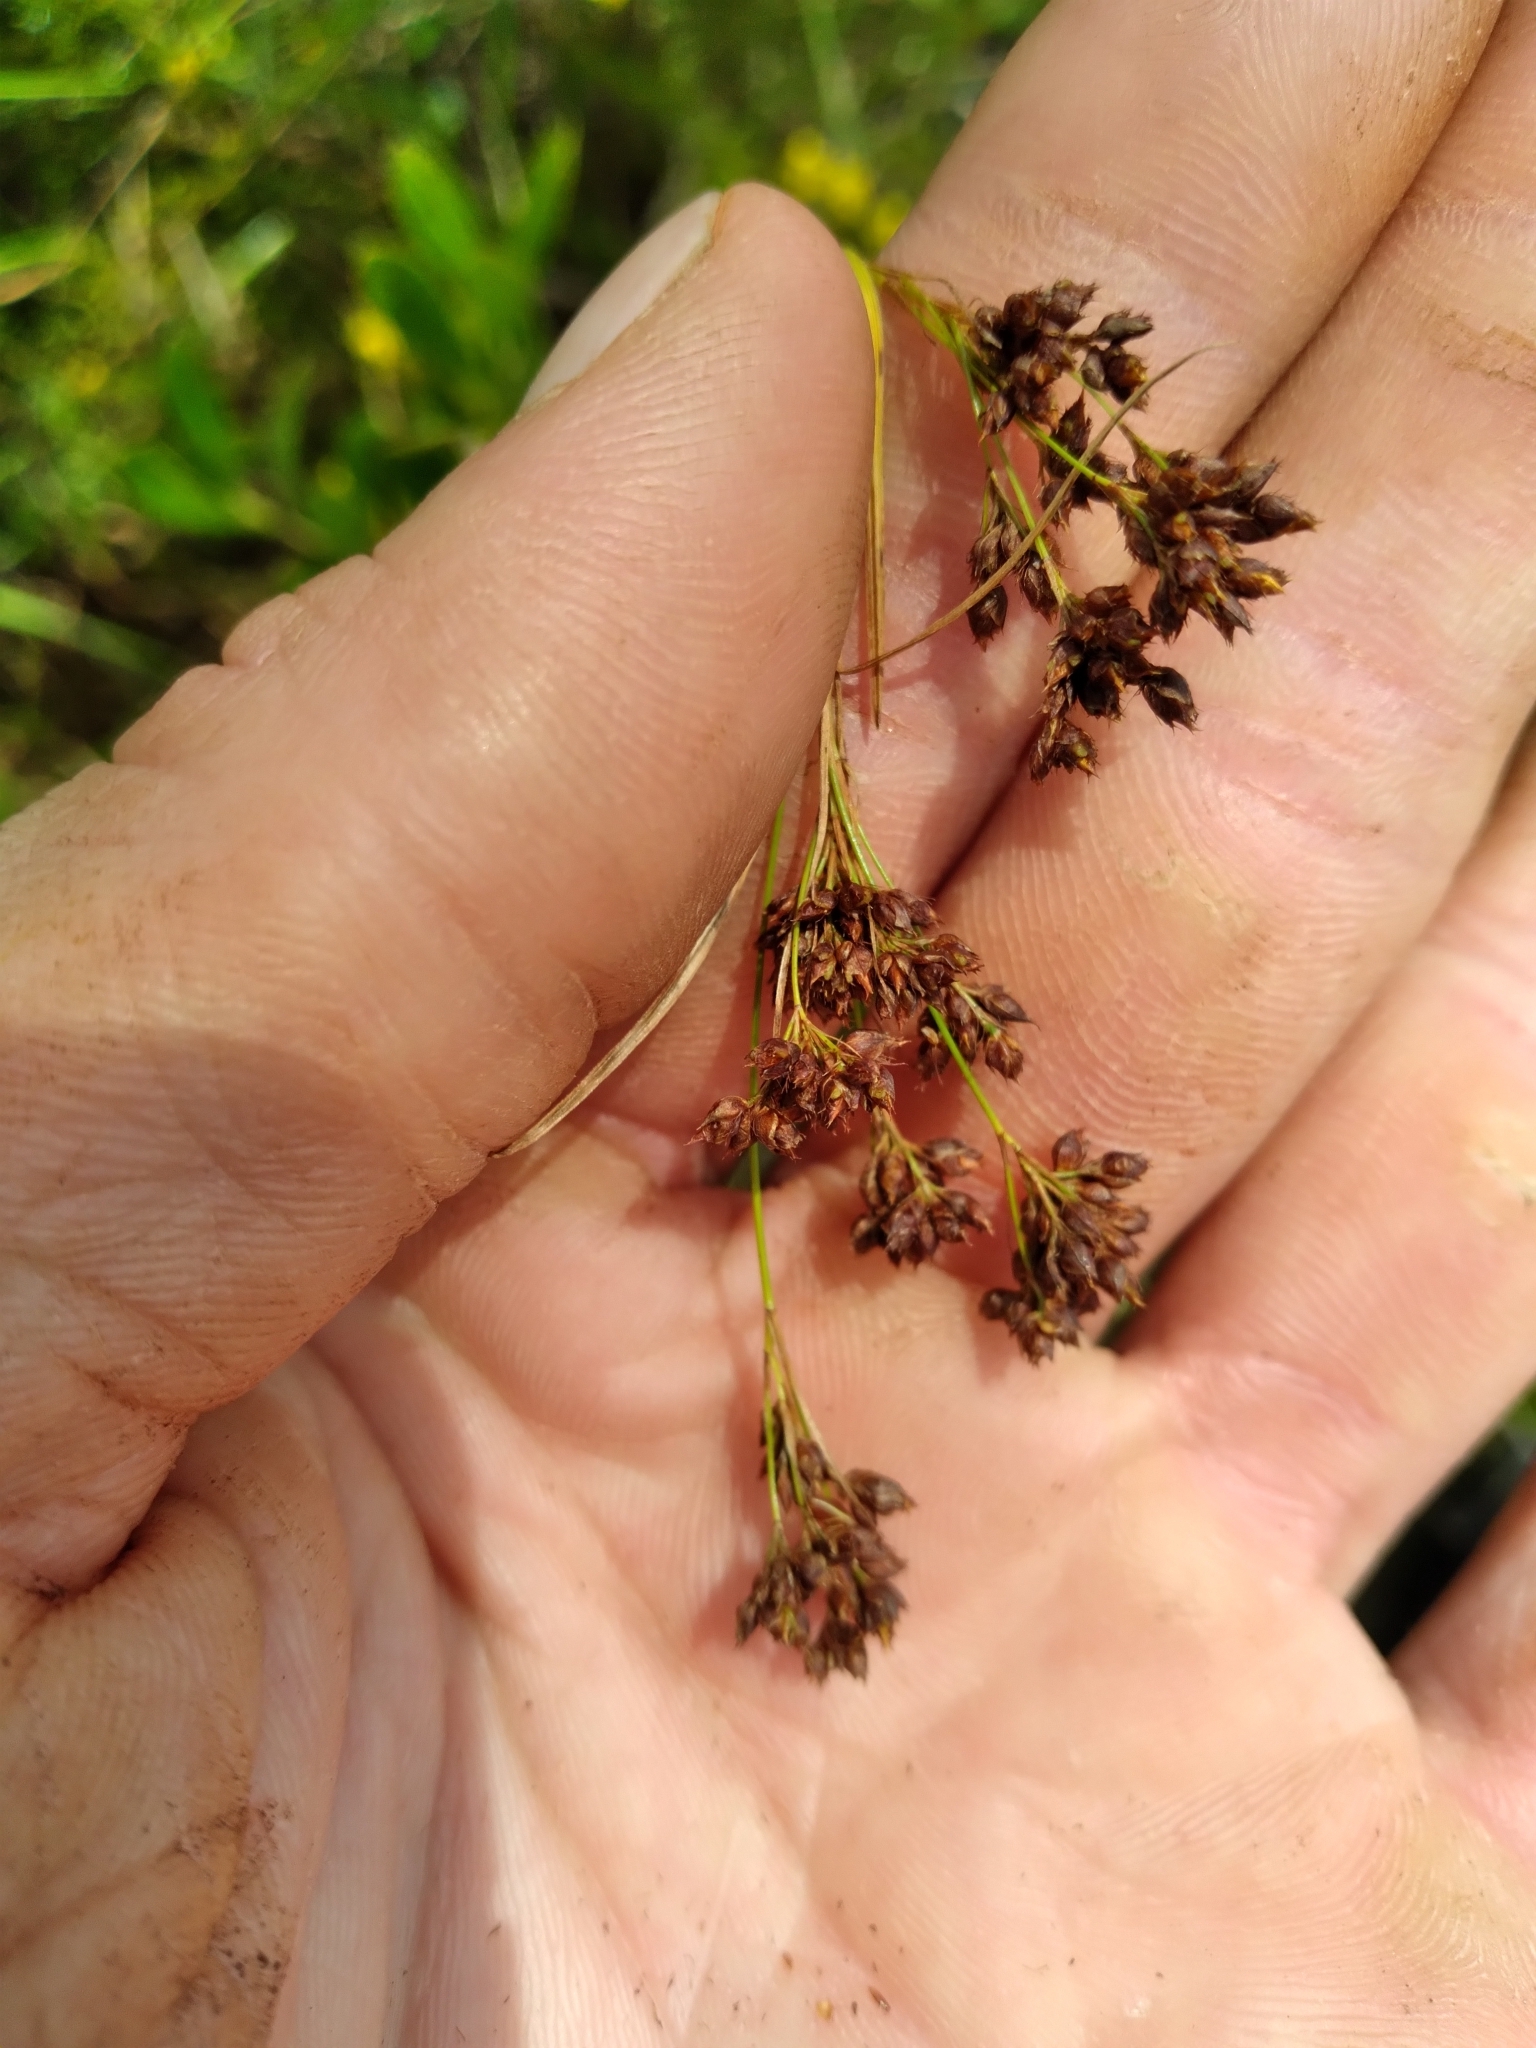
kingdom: Plantae
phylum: Tracheophyta
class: Liliopsida
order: Poales
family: Cyperaceae
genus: Rhynchospora
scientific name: Rhynchospora elliottii
